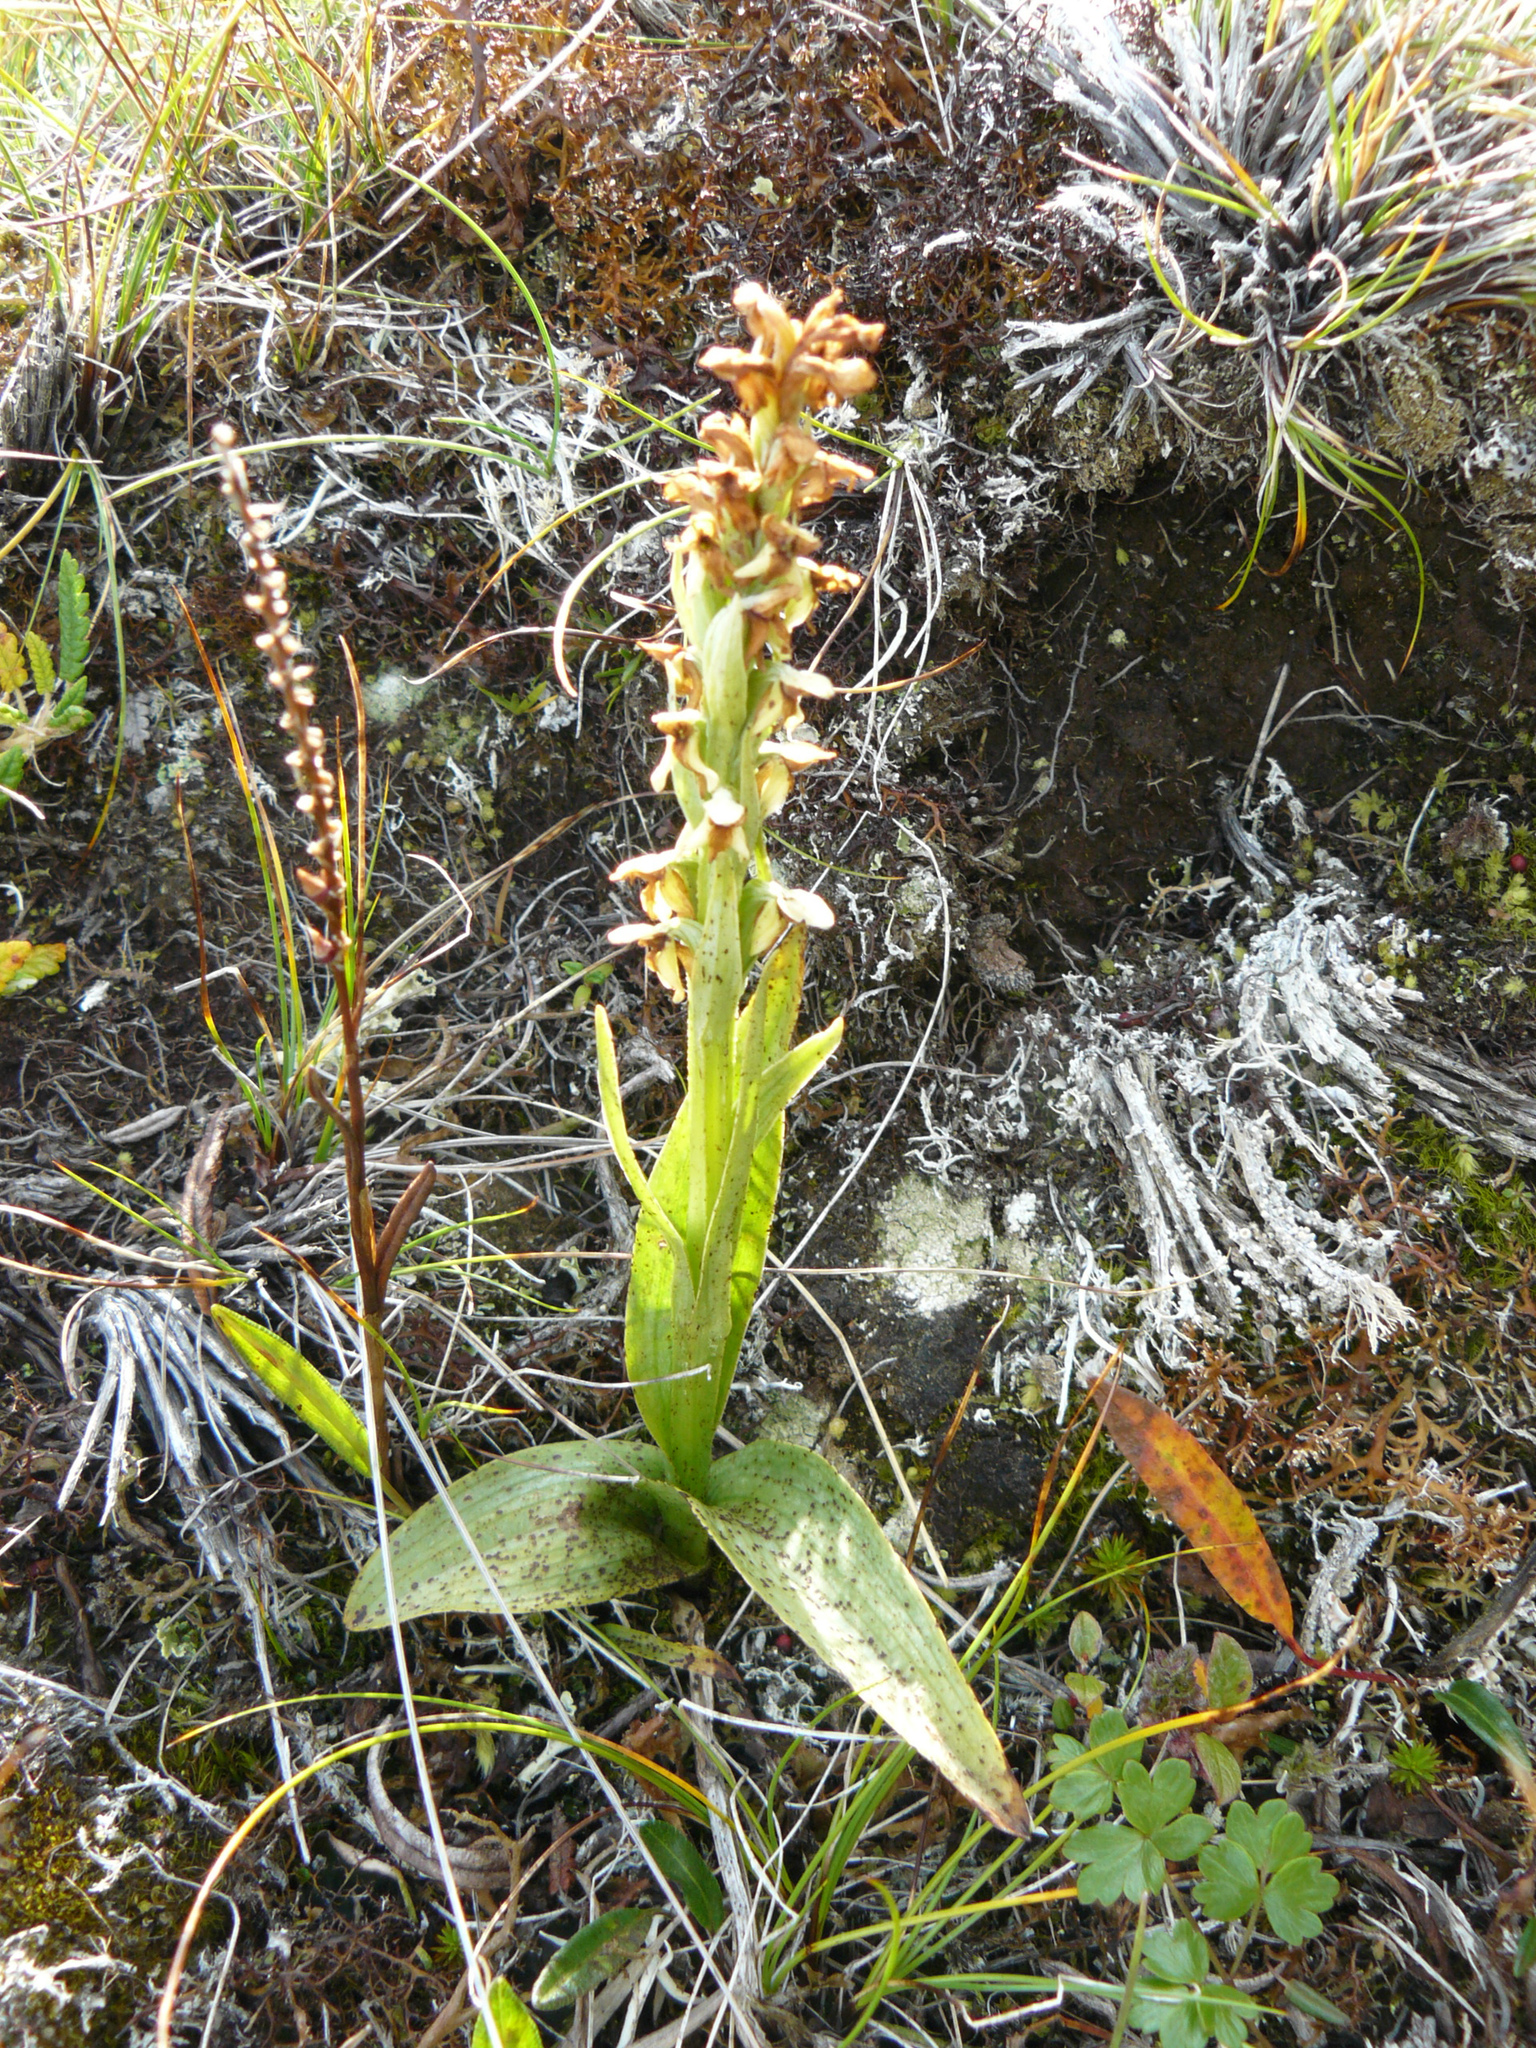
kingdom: Plantae
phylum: Tracheophyta
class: Liliopsida
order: Asparagales
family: Orchidaceae
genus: Platanthera
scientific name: Platanthera hyperborea
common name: Northern green orchid
